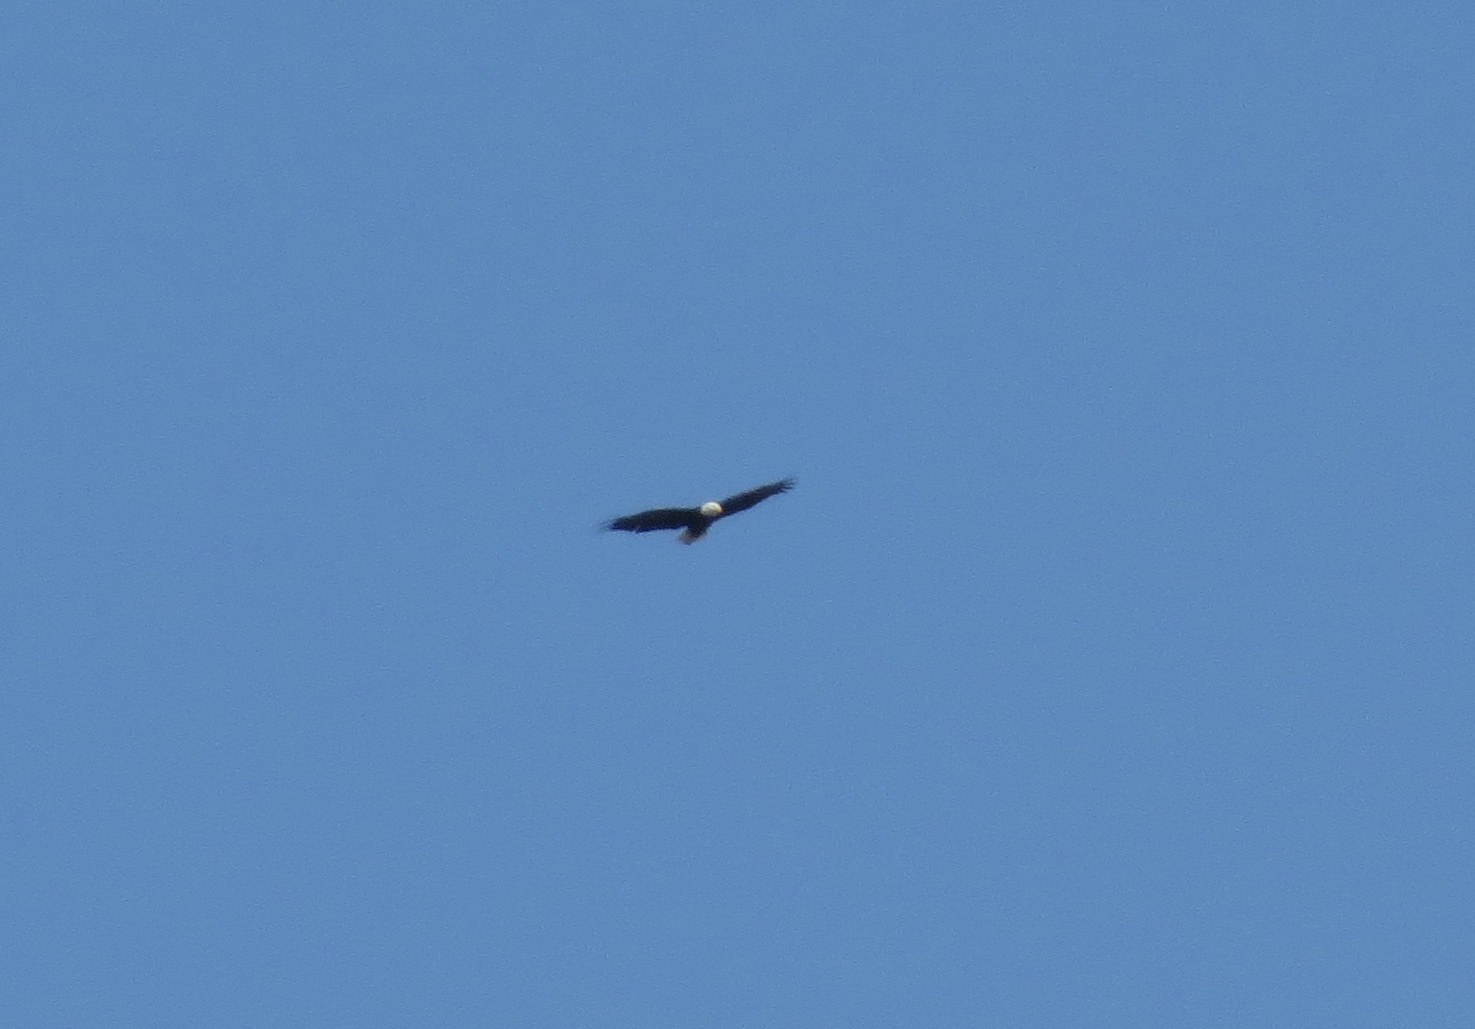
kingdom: Animalia
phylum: Chordata
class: Aves
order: Accipitriformes
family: Accipitridae
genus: Haliaeetus
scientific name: Haliaeetus leucocephalus
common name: Bald eagle
